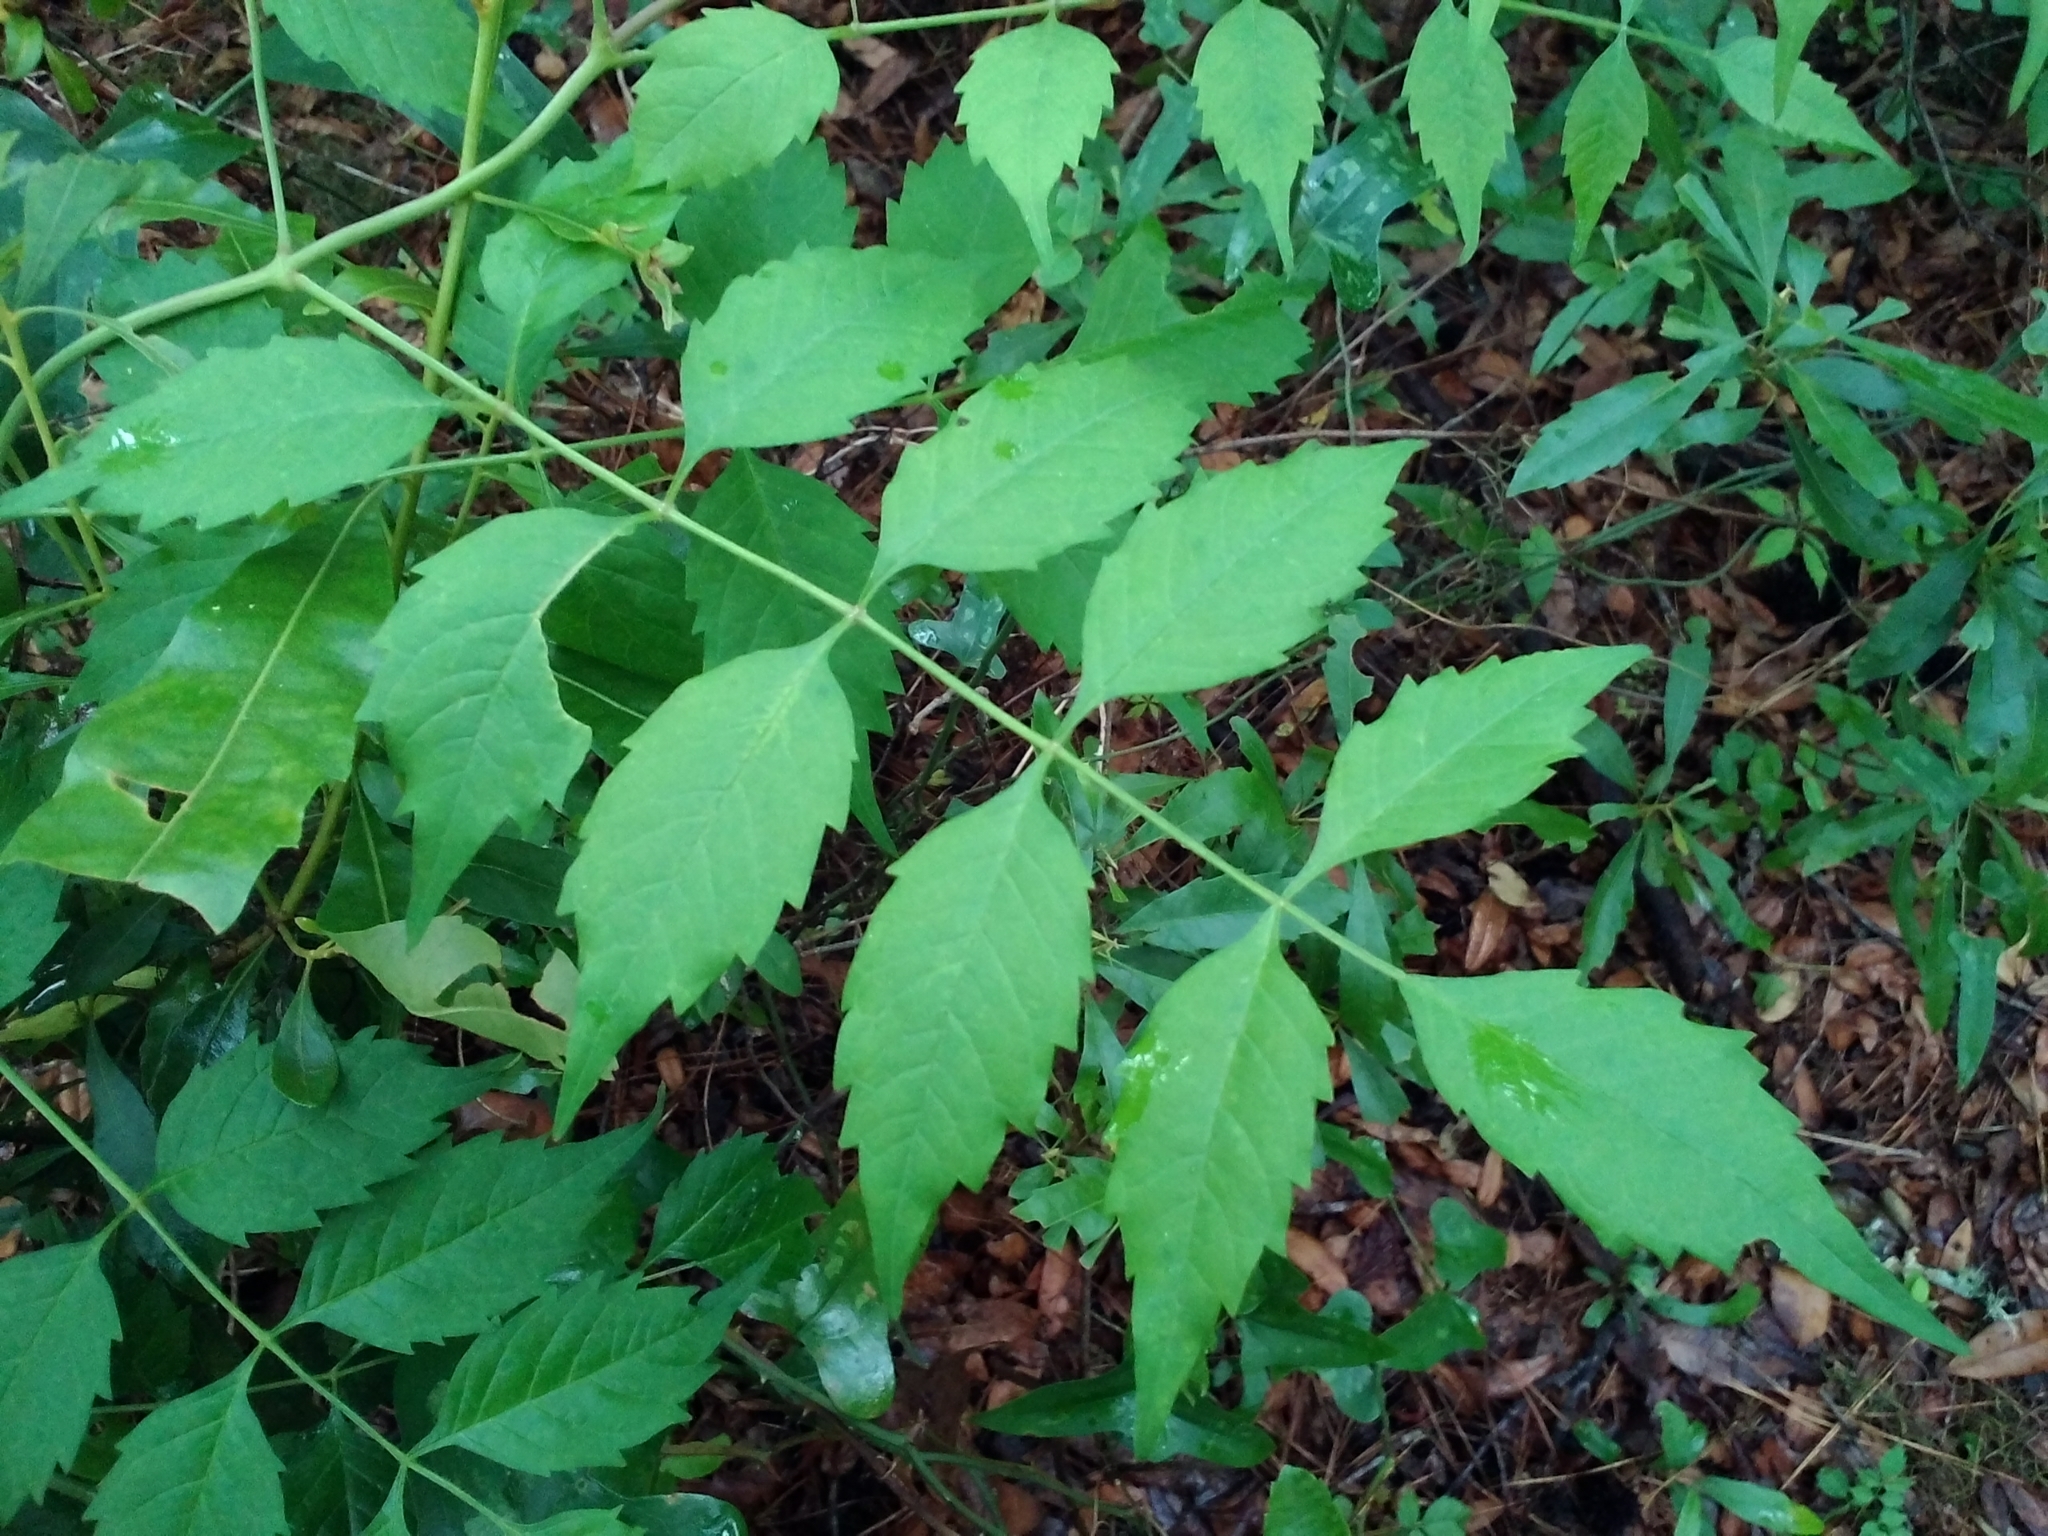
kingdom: Plantae
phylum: Tracheophyta
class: Magnoliopsida
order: Lamiales
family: Bignoniaceae
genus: Campsis
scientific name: Campsis radicans
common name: Trumpet-creeper
